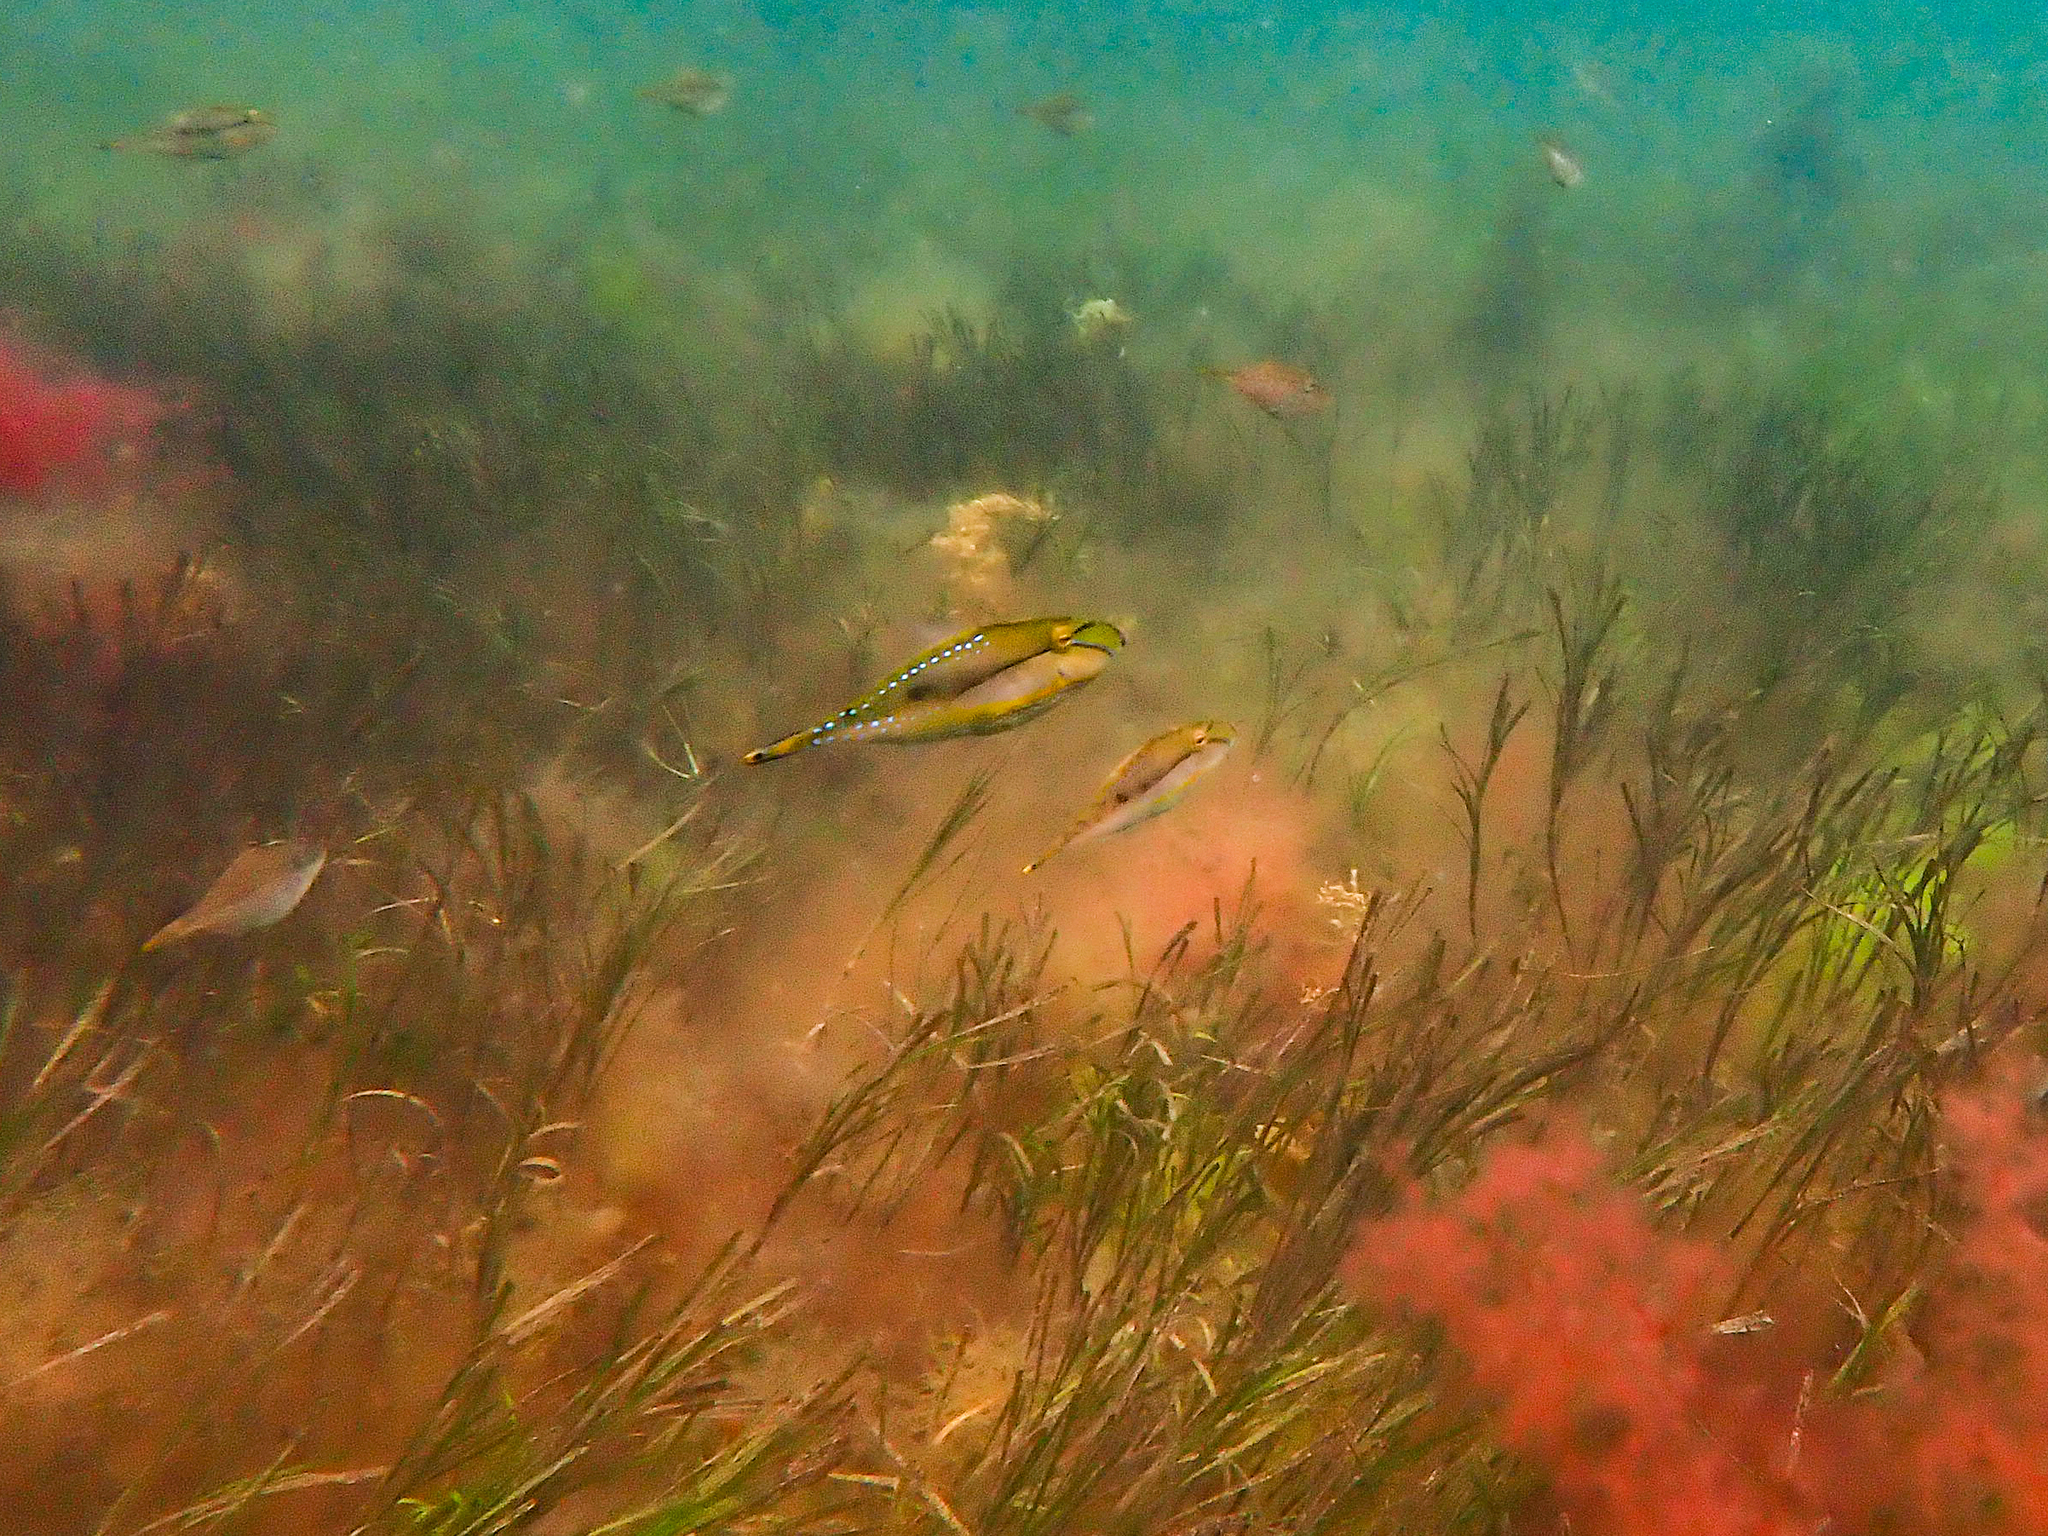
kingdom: Animalia
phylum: Chordata
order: Tetraodontiformes
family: Monacanthidae
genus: Acanthaluteres
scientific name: Acanthaluteres spilomelanurus
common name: Bridled leatherjacket
